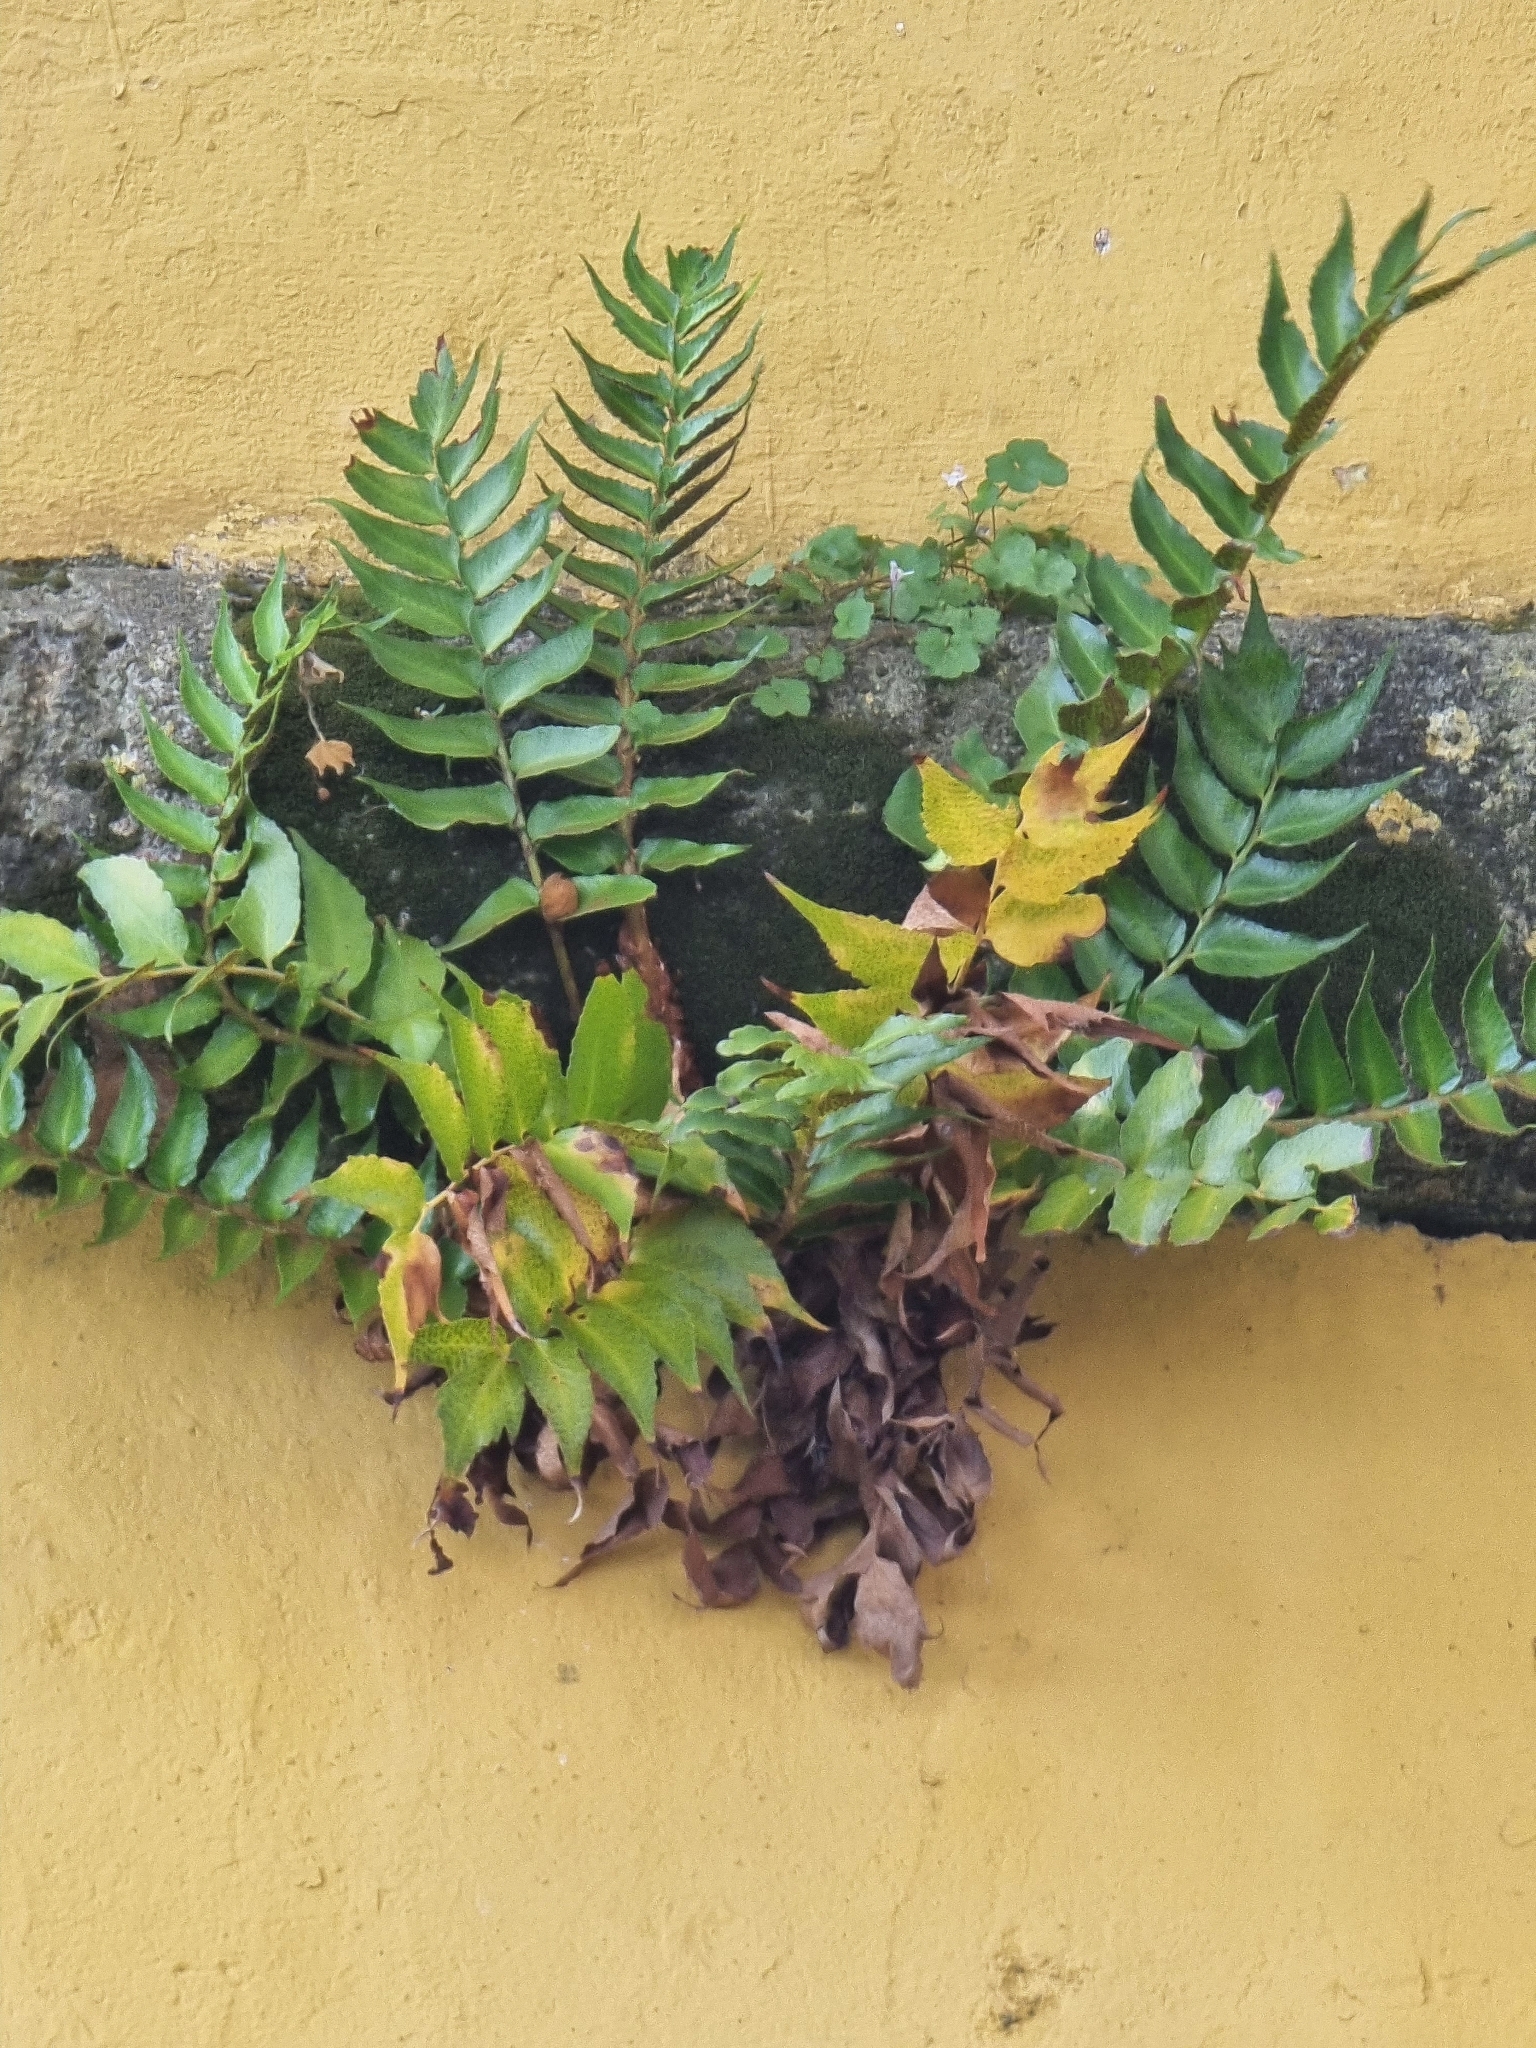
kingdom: Plantae
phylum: Tracheophyta
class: Polypodiopsida
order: Polypodiales
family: Dryopteridaceae
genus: Cyrtomium
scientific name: Cyrtomium falcatum
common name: House holly-fern
